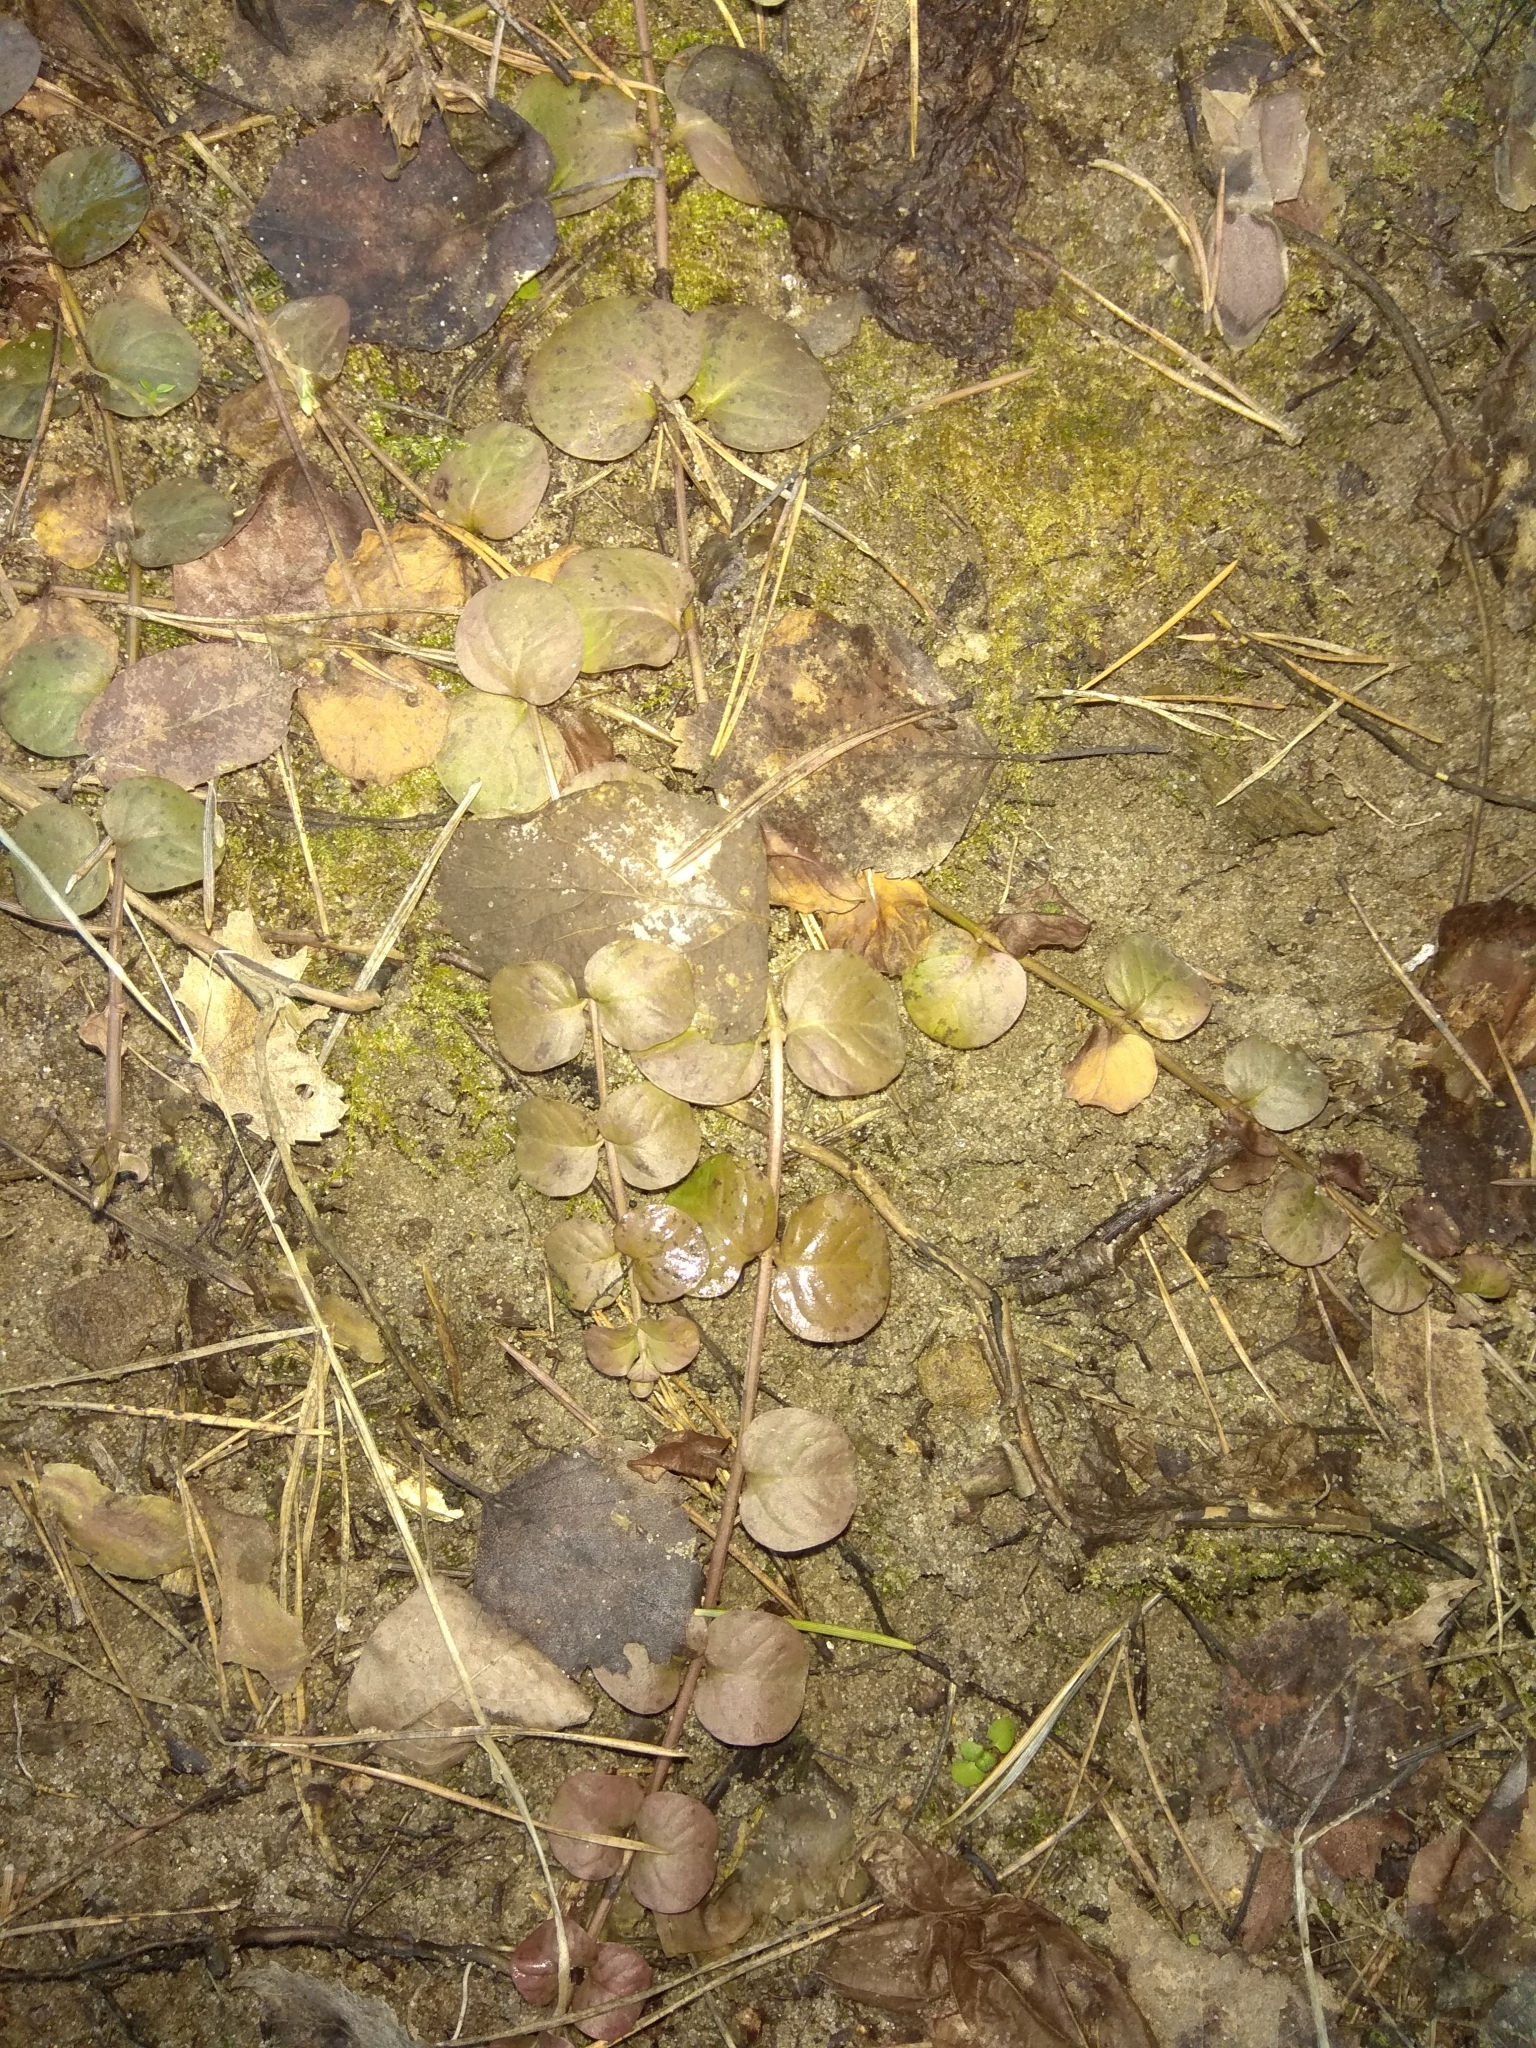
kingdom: Plantae
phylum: Tracheophyta
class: Magnoliopsida
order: Ericales
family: Primulaceae
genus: Lysimachia
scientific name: Lysimachia nummularia
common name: Moneywort
